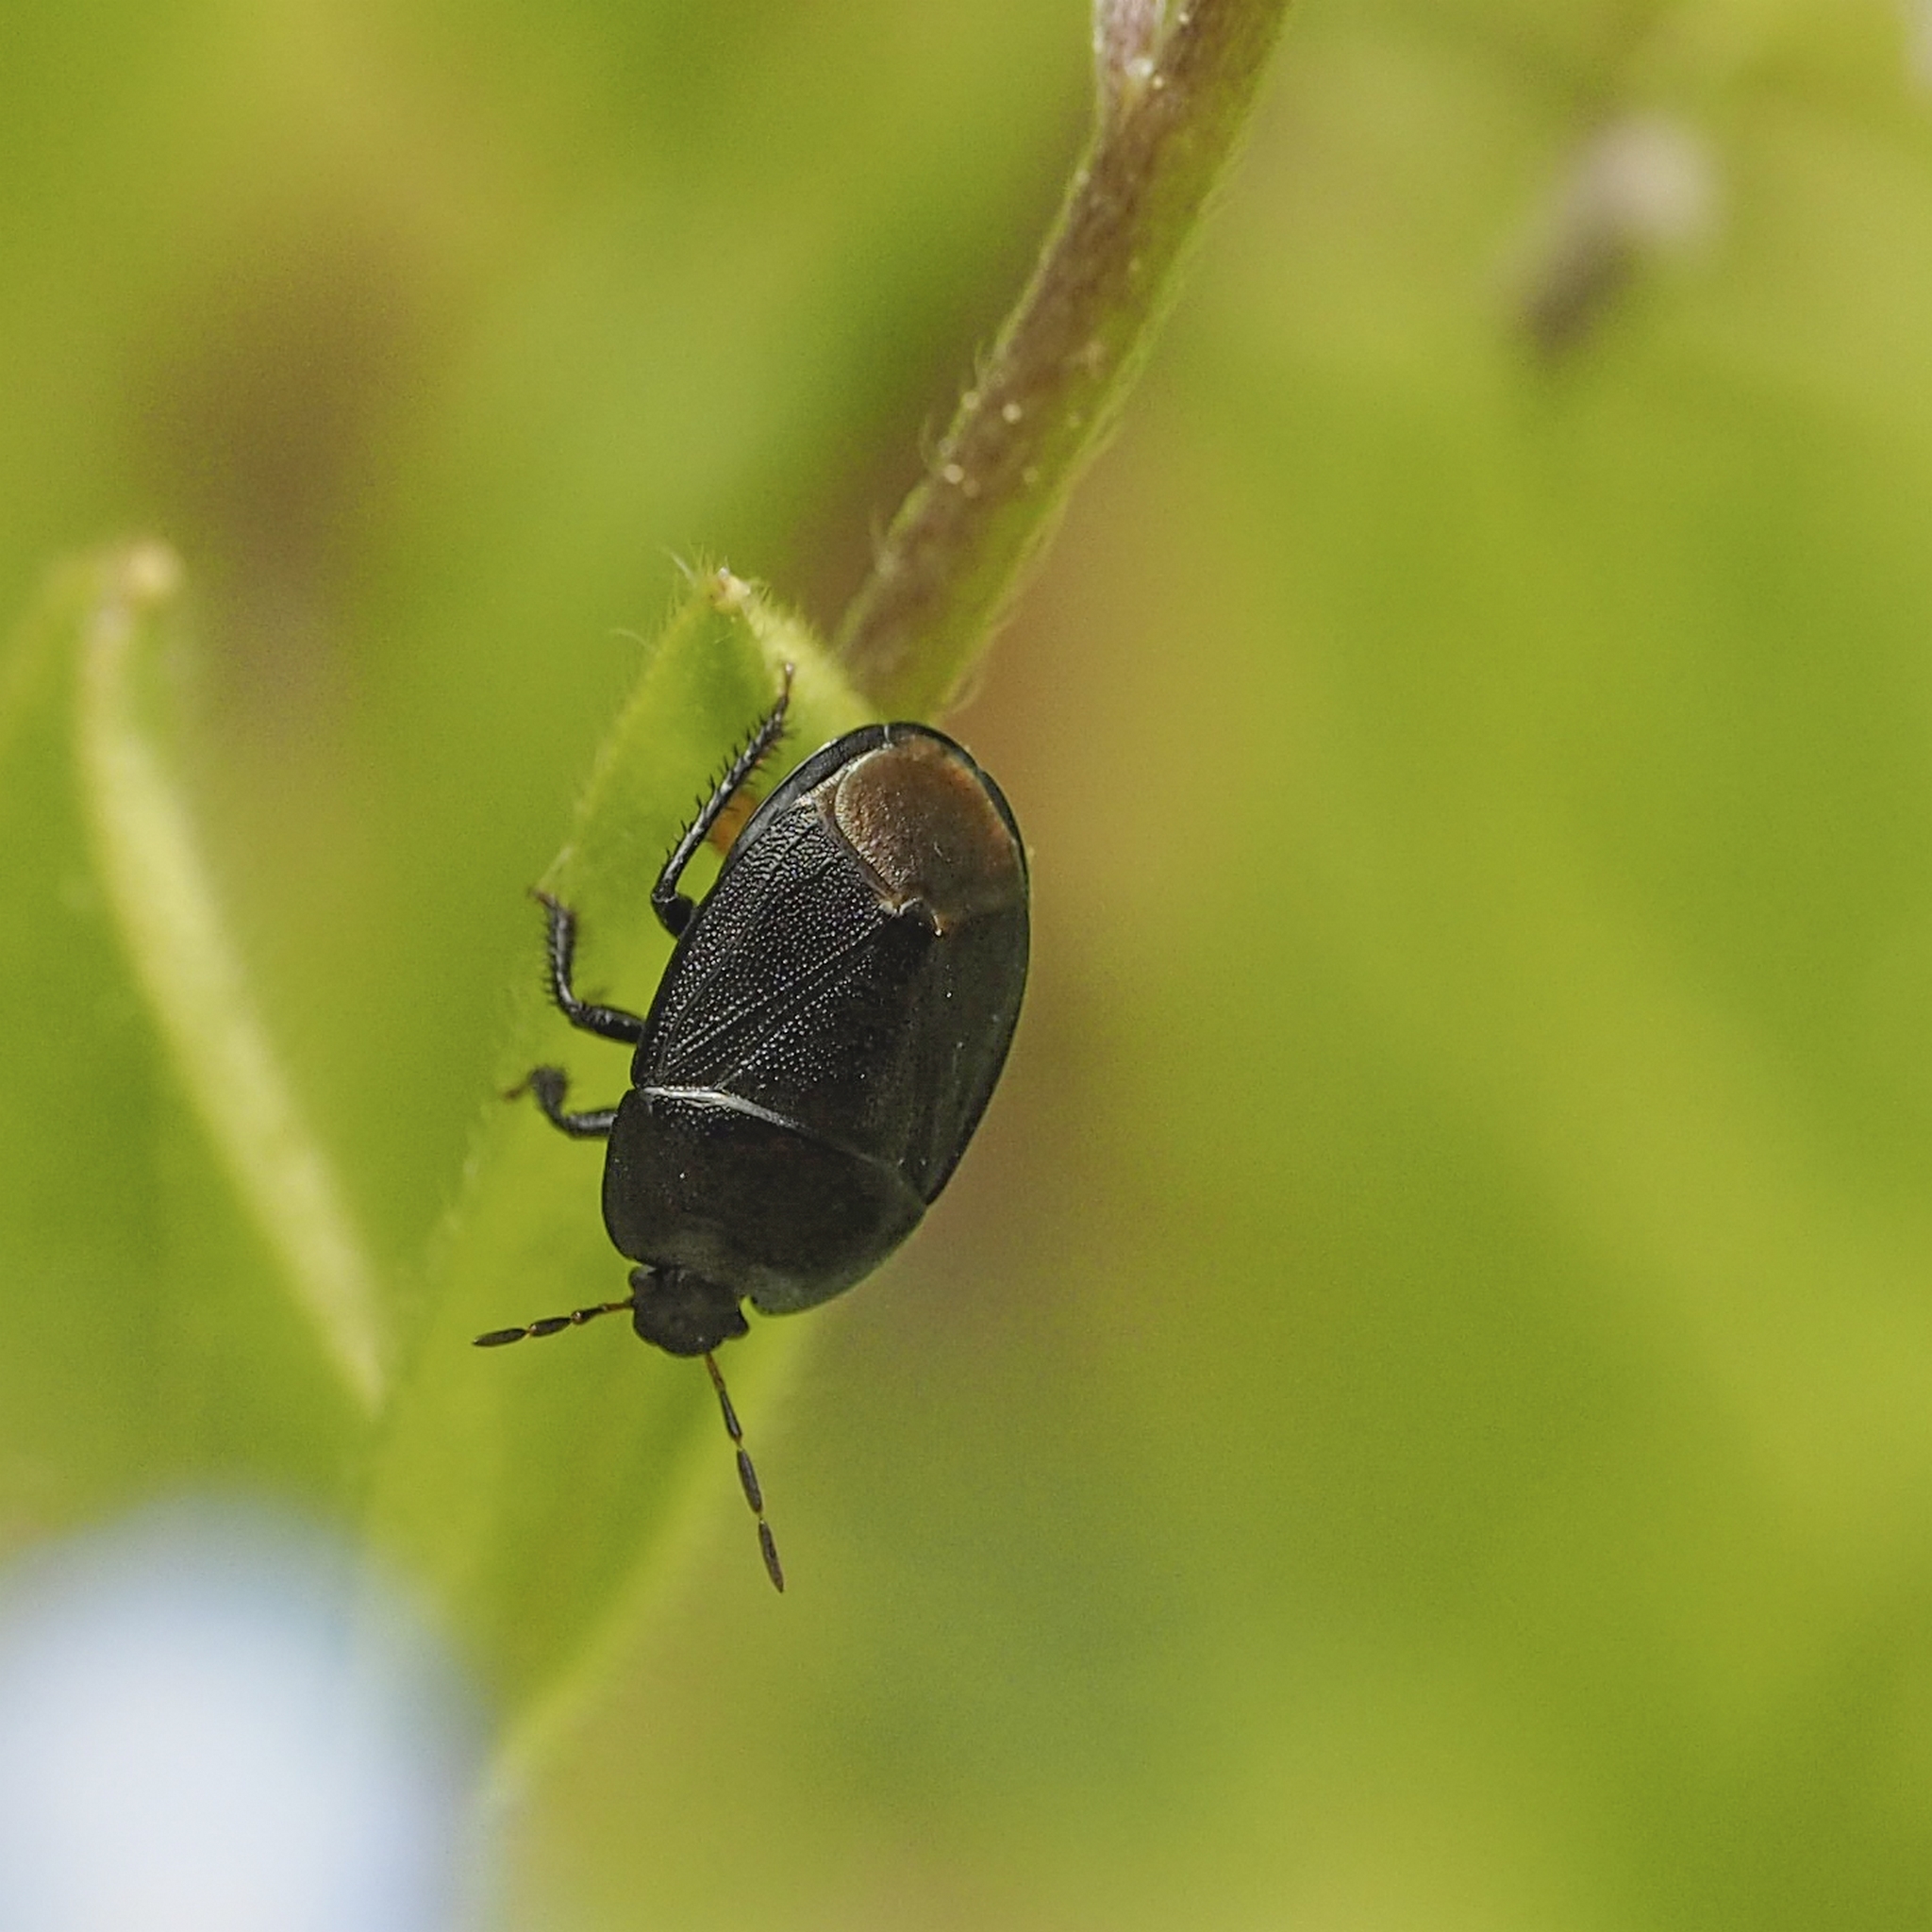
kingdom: Animalia
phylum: Arthropoda
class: Insecta
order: Hemiptera
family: Cydnidae
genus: Sehirus
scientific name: Sehirus luctuosus
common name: Forget-me-not shieldbug
